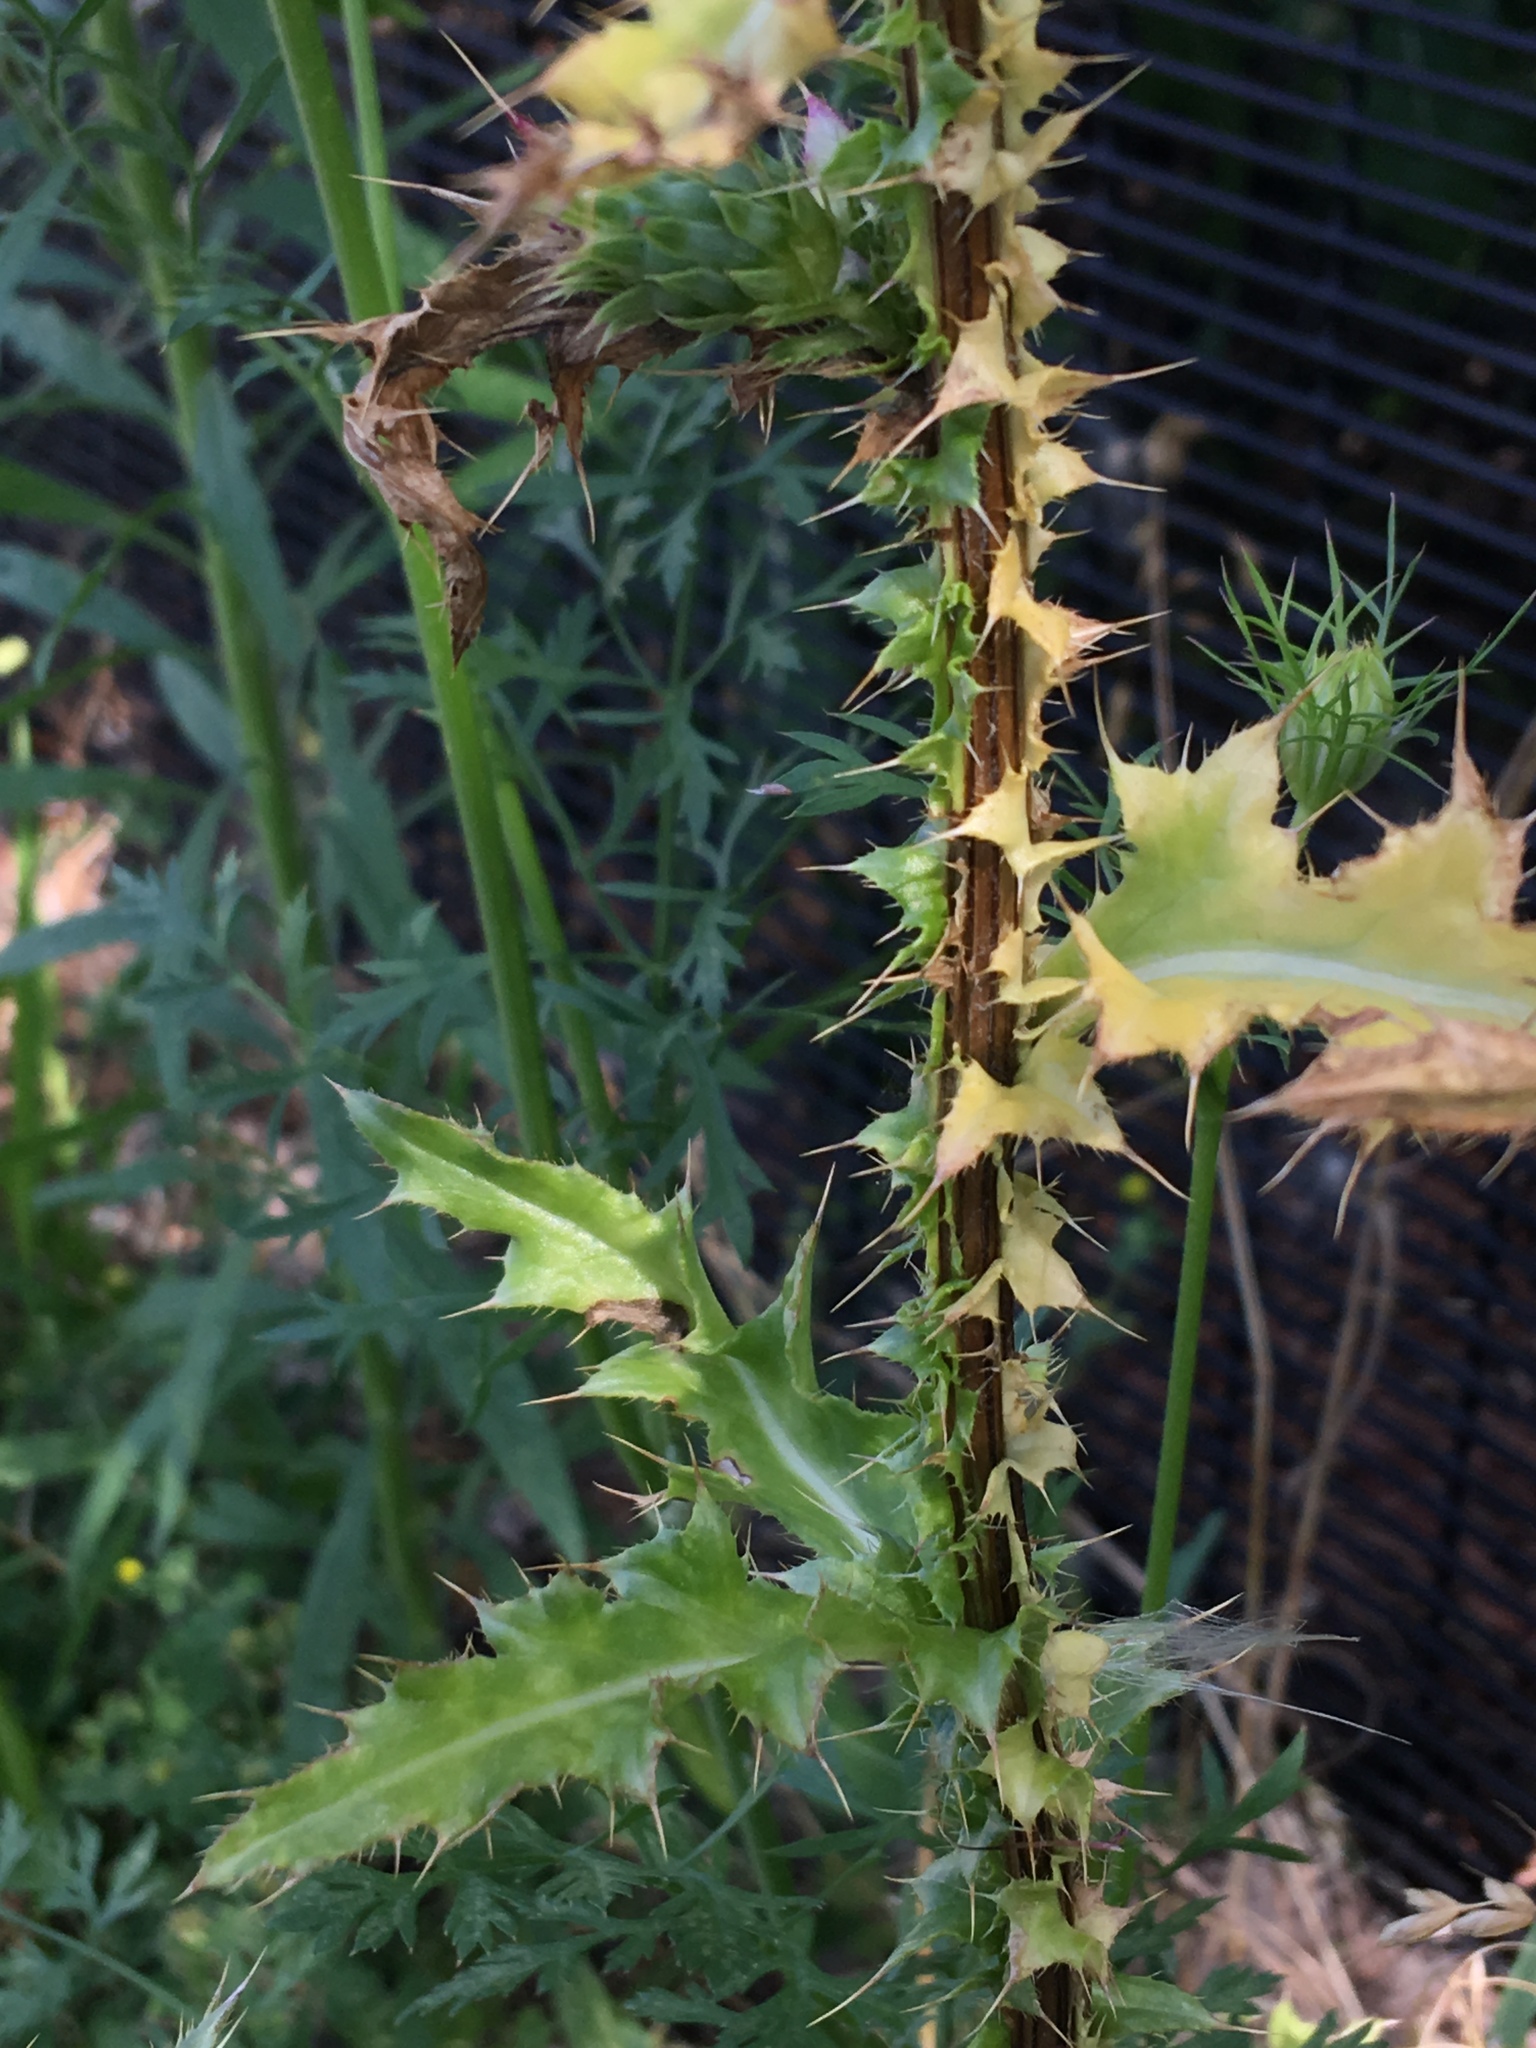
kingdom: Plantae
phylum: Tracheophyta
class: Magnoliopsida
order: Asterales
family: Asteraceae
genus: Carduus
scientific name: Carduus nutans
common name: Musk thistle
